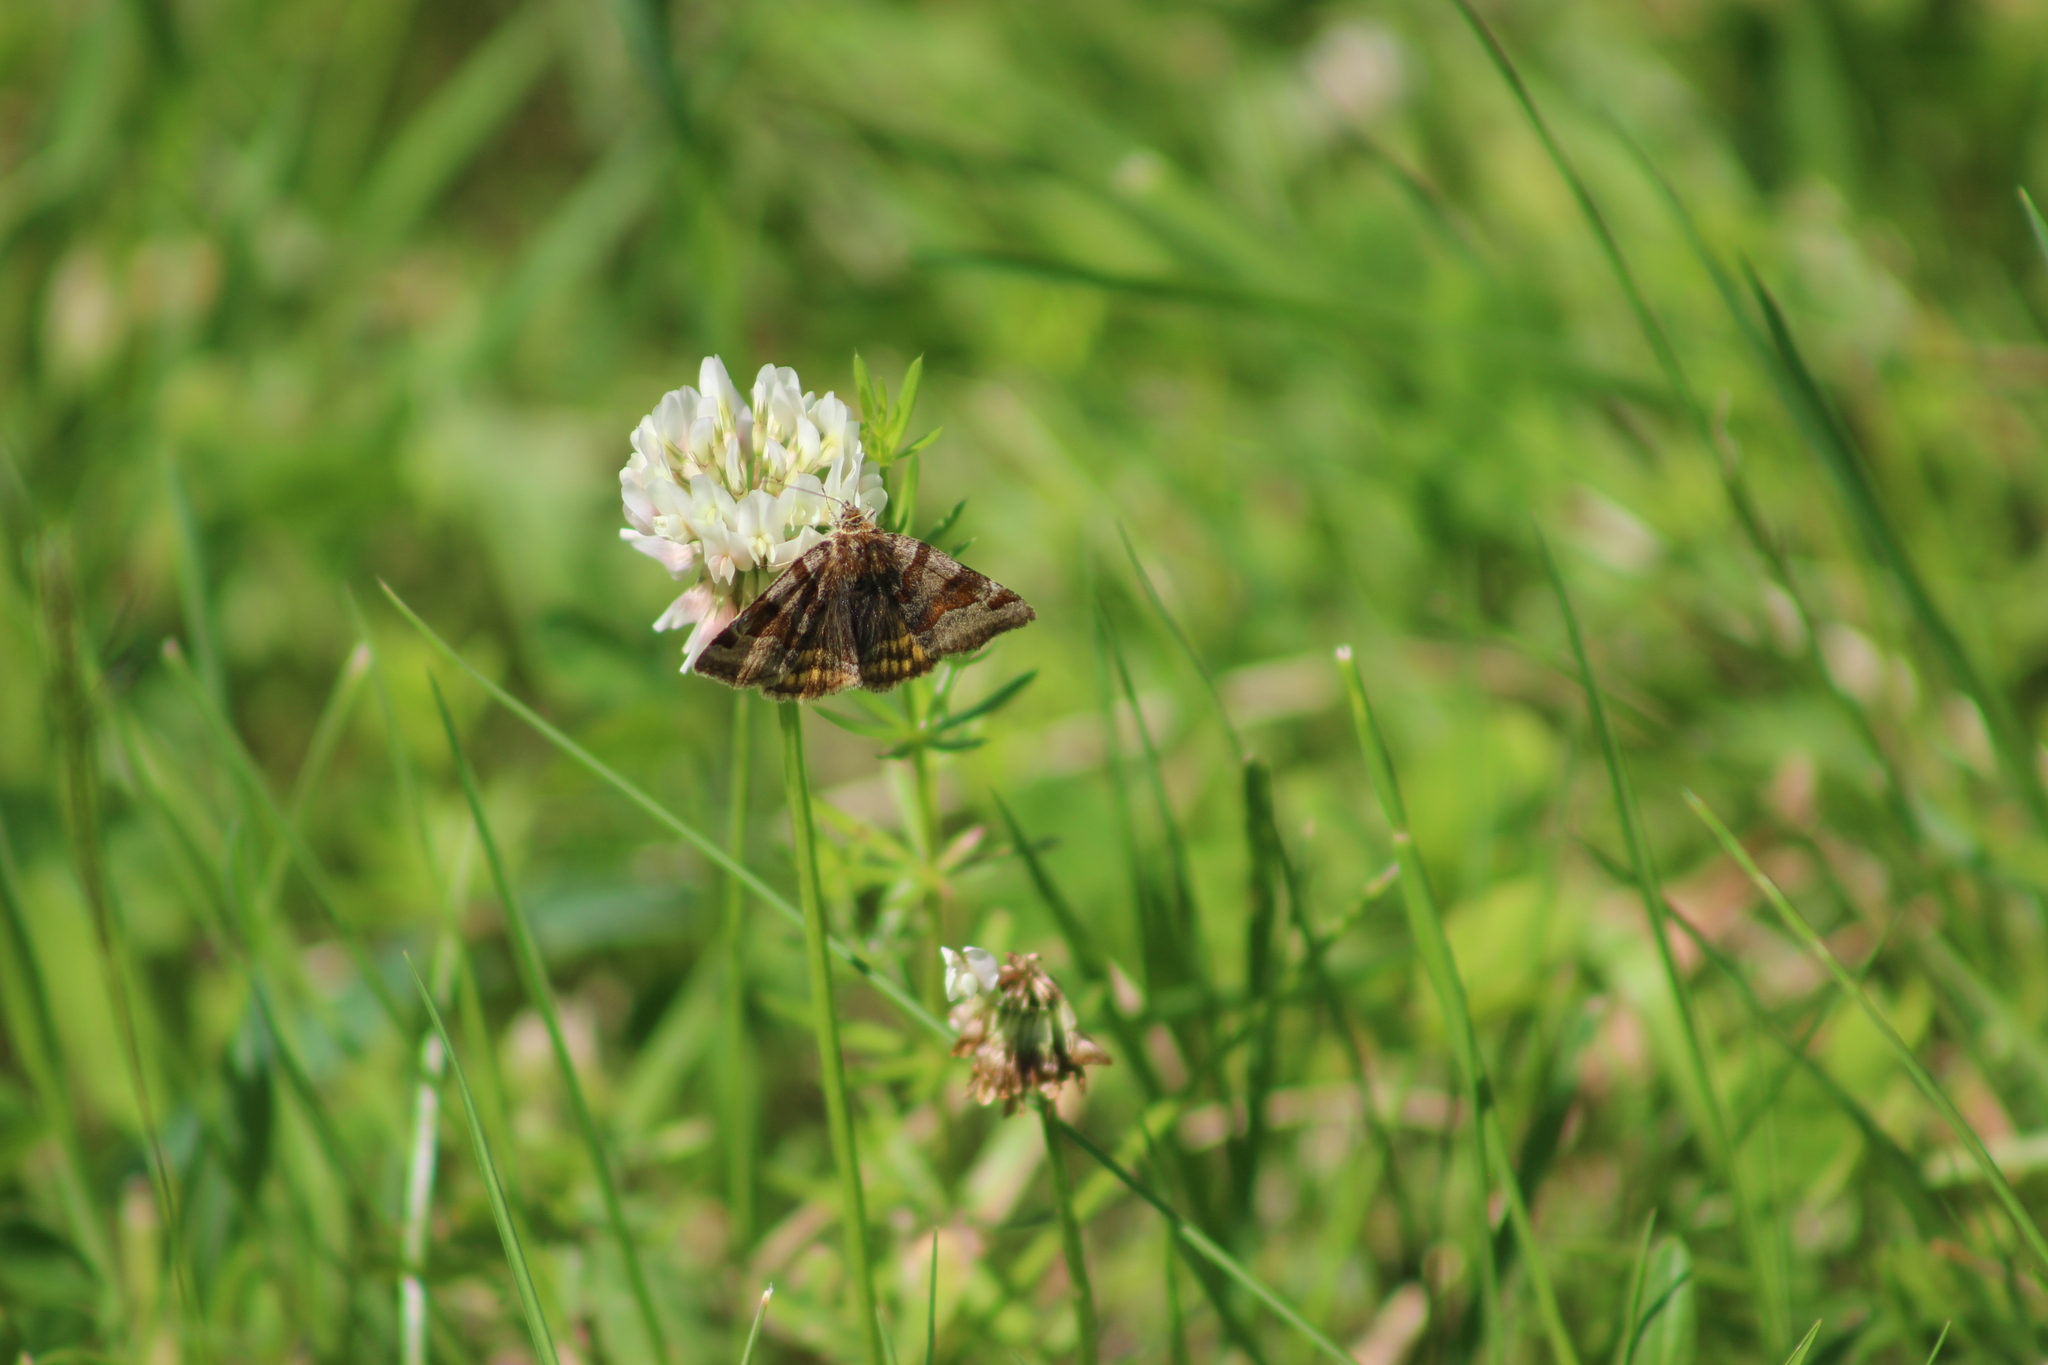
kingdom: Animalia
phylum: Arthropoda
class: Insecta
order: Lepidoptera
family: Erebidae
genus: Euclidia
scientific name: Euclidia glyphica
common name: Burnet companion
